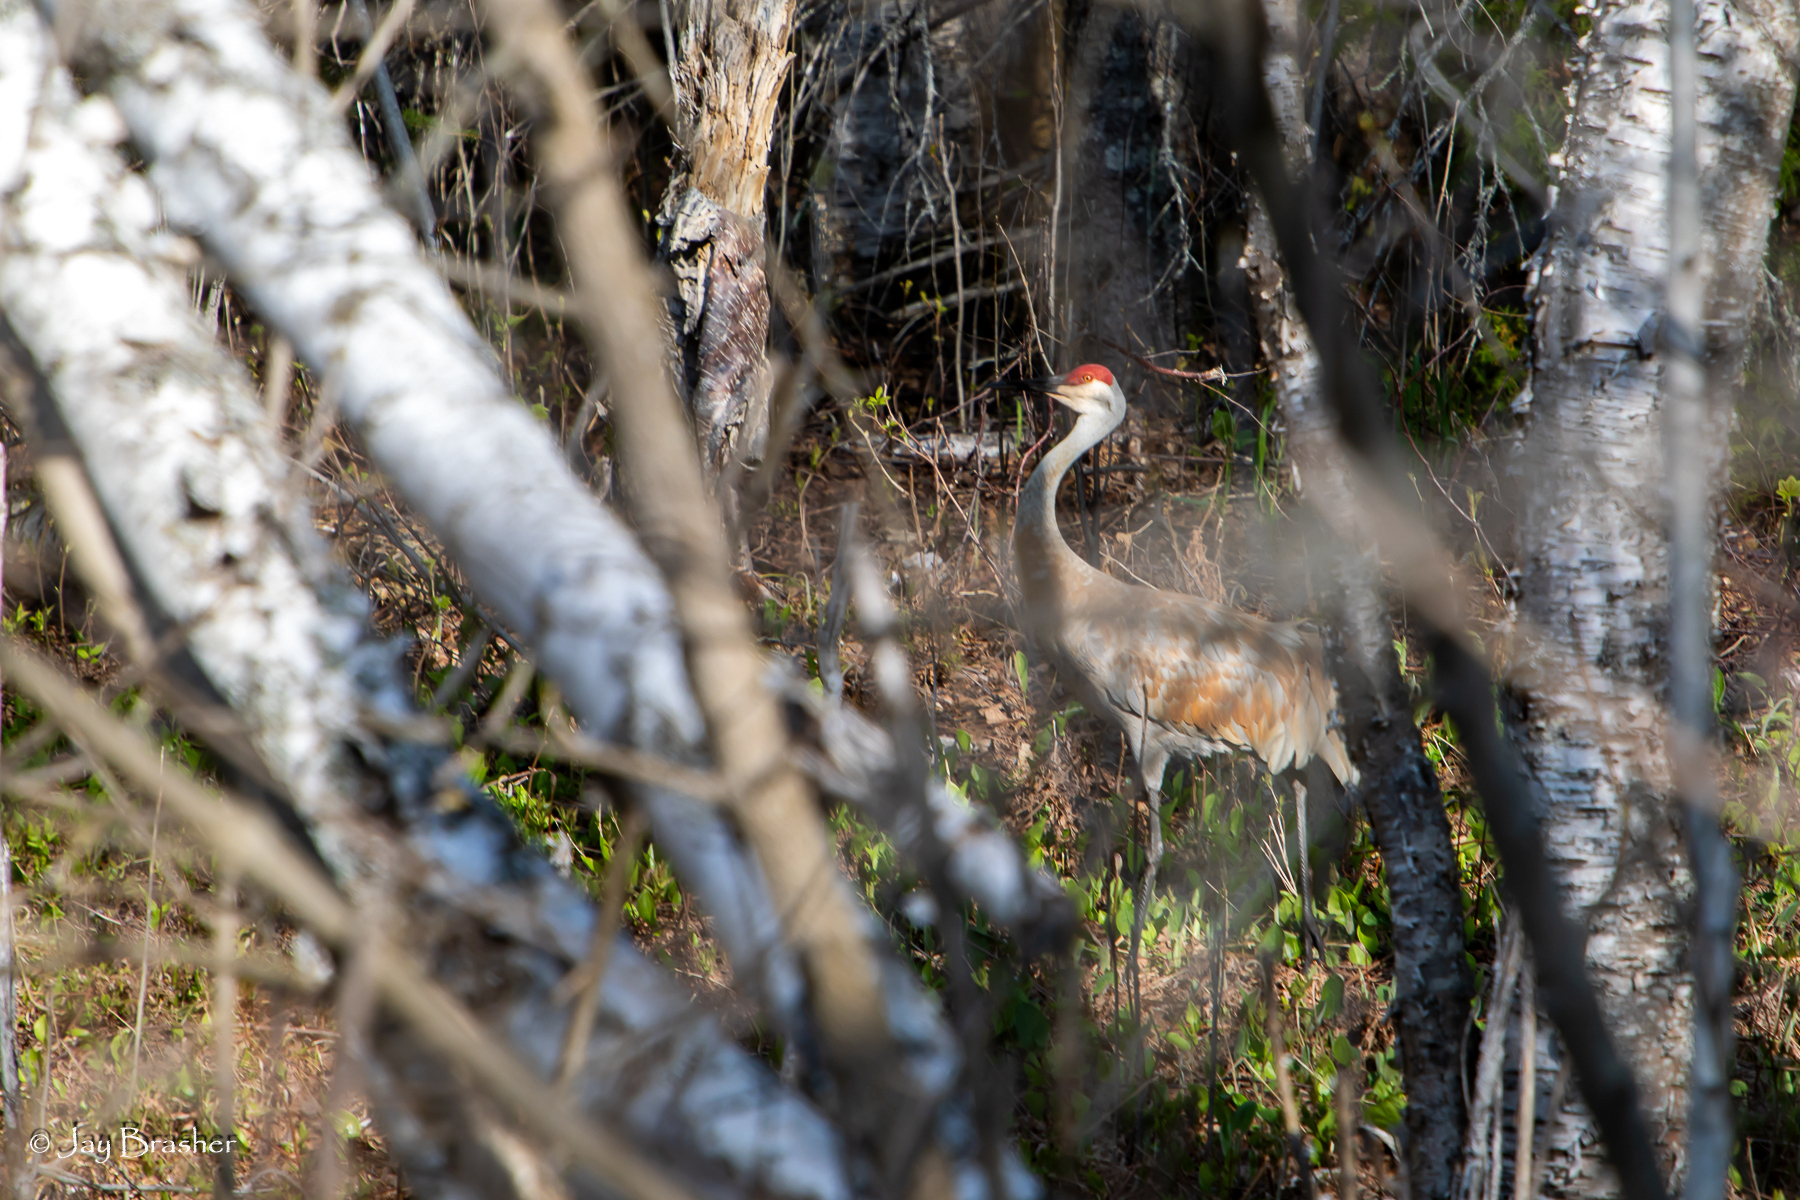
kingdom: Animalia
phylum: Chordata
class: Aves
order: Gruiformes
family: Gruidae
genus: Grus
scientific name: Grus canadensis
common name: Sandhill crane
